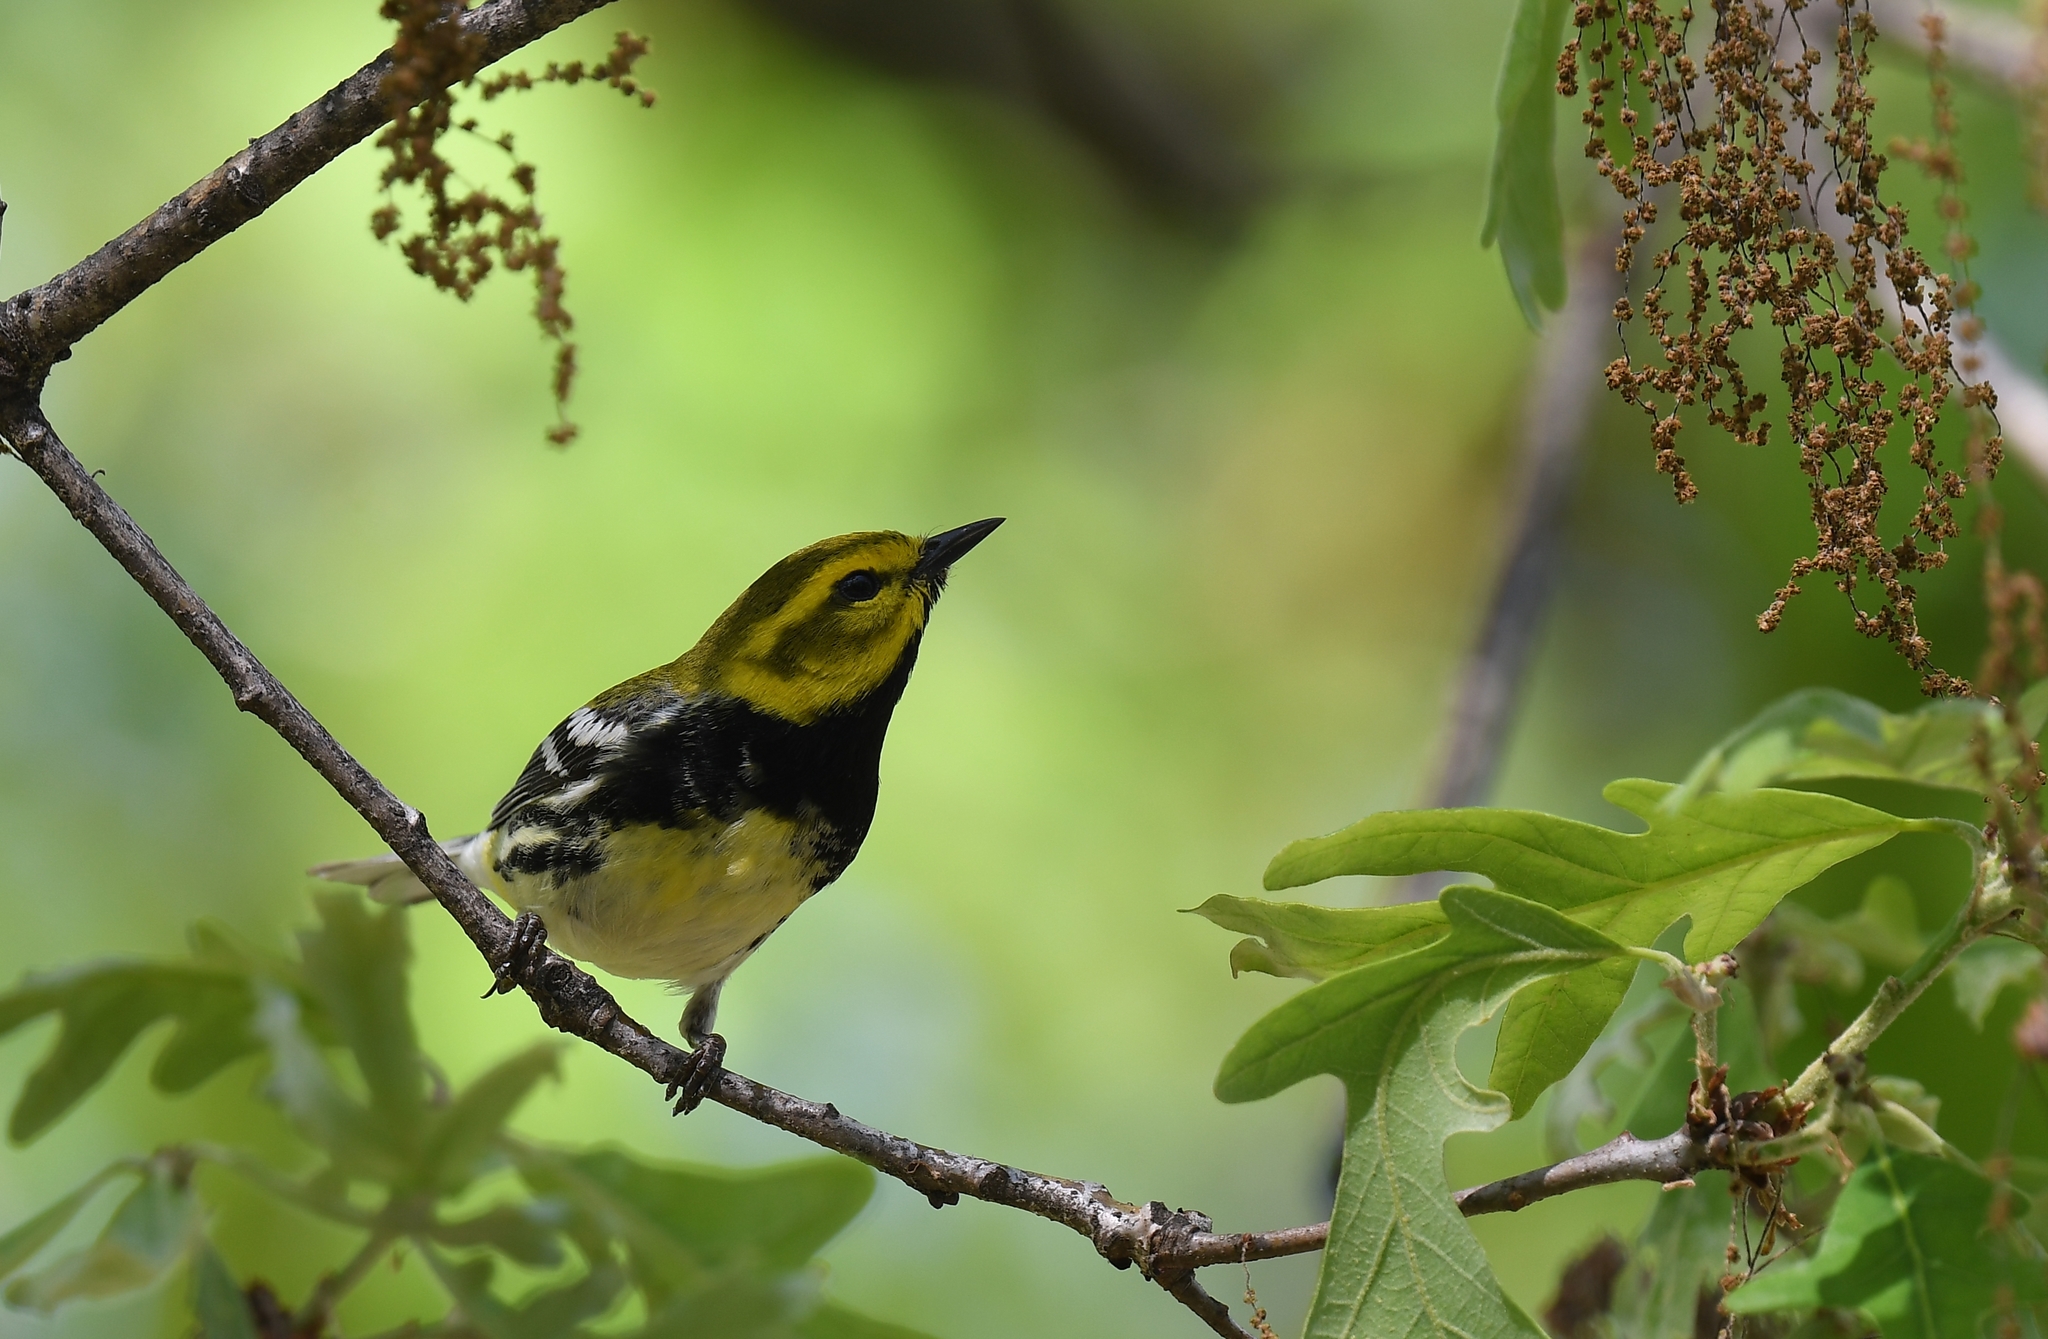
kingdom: Animalia
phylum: Chordata
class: Aves
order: Passeriformes
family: Parulidae
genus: Setophaga
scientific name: Setophaga virens
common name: Black-throated green warbler
